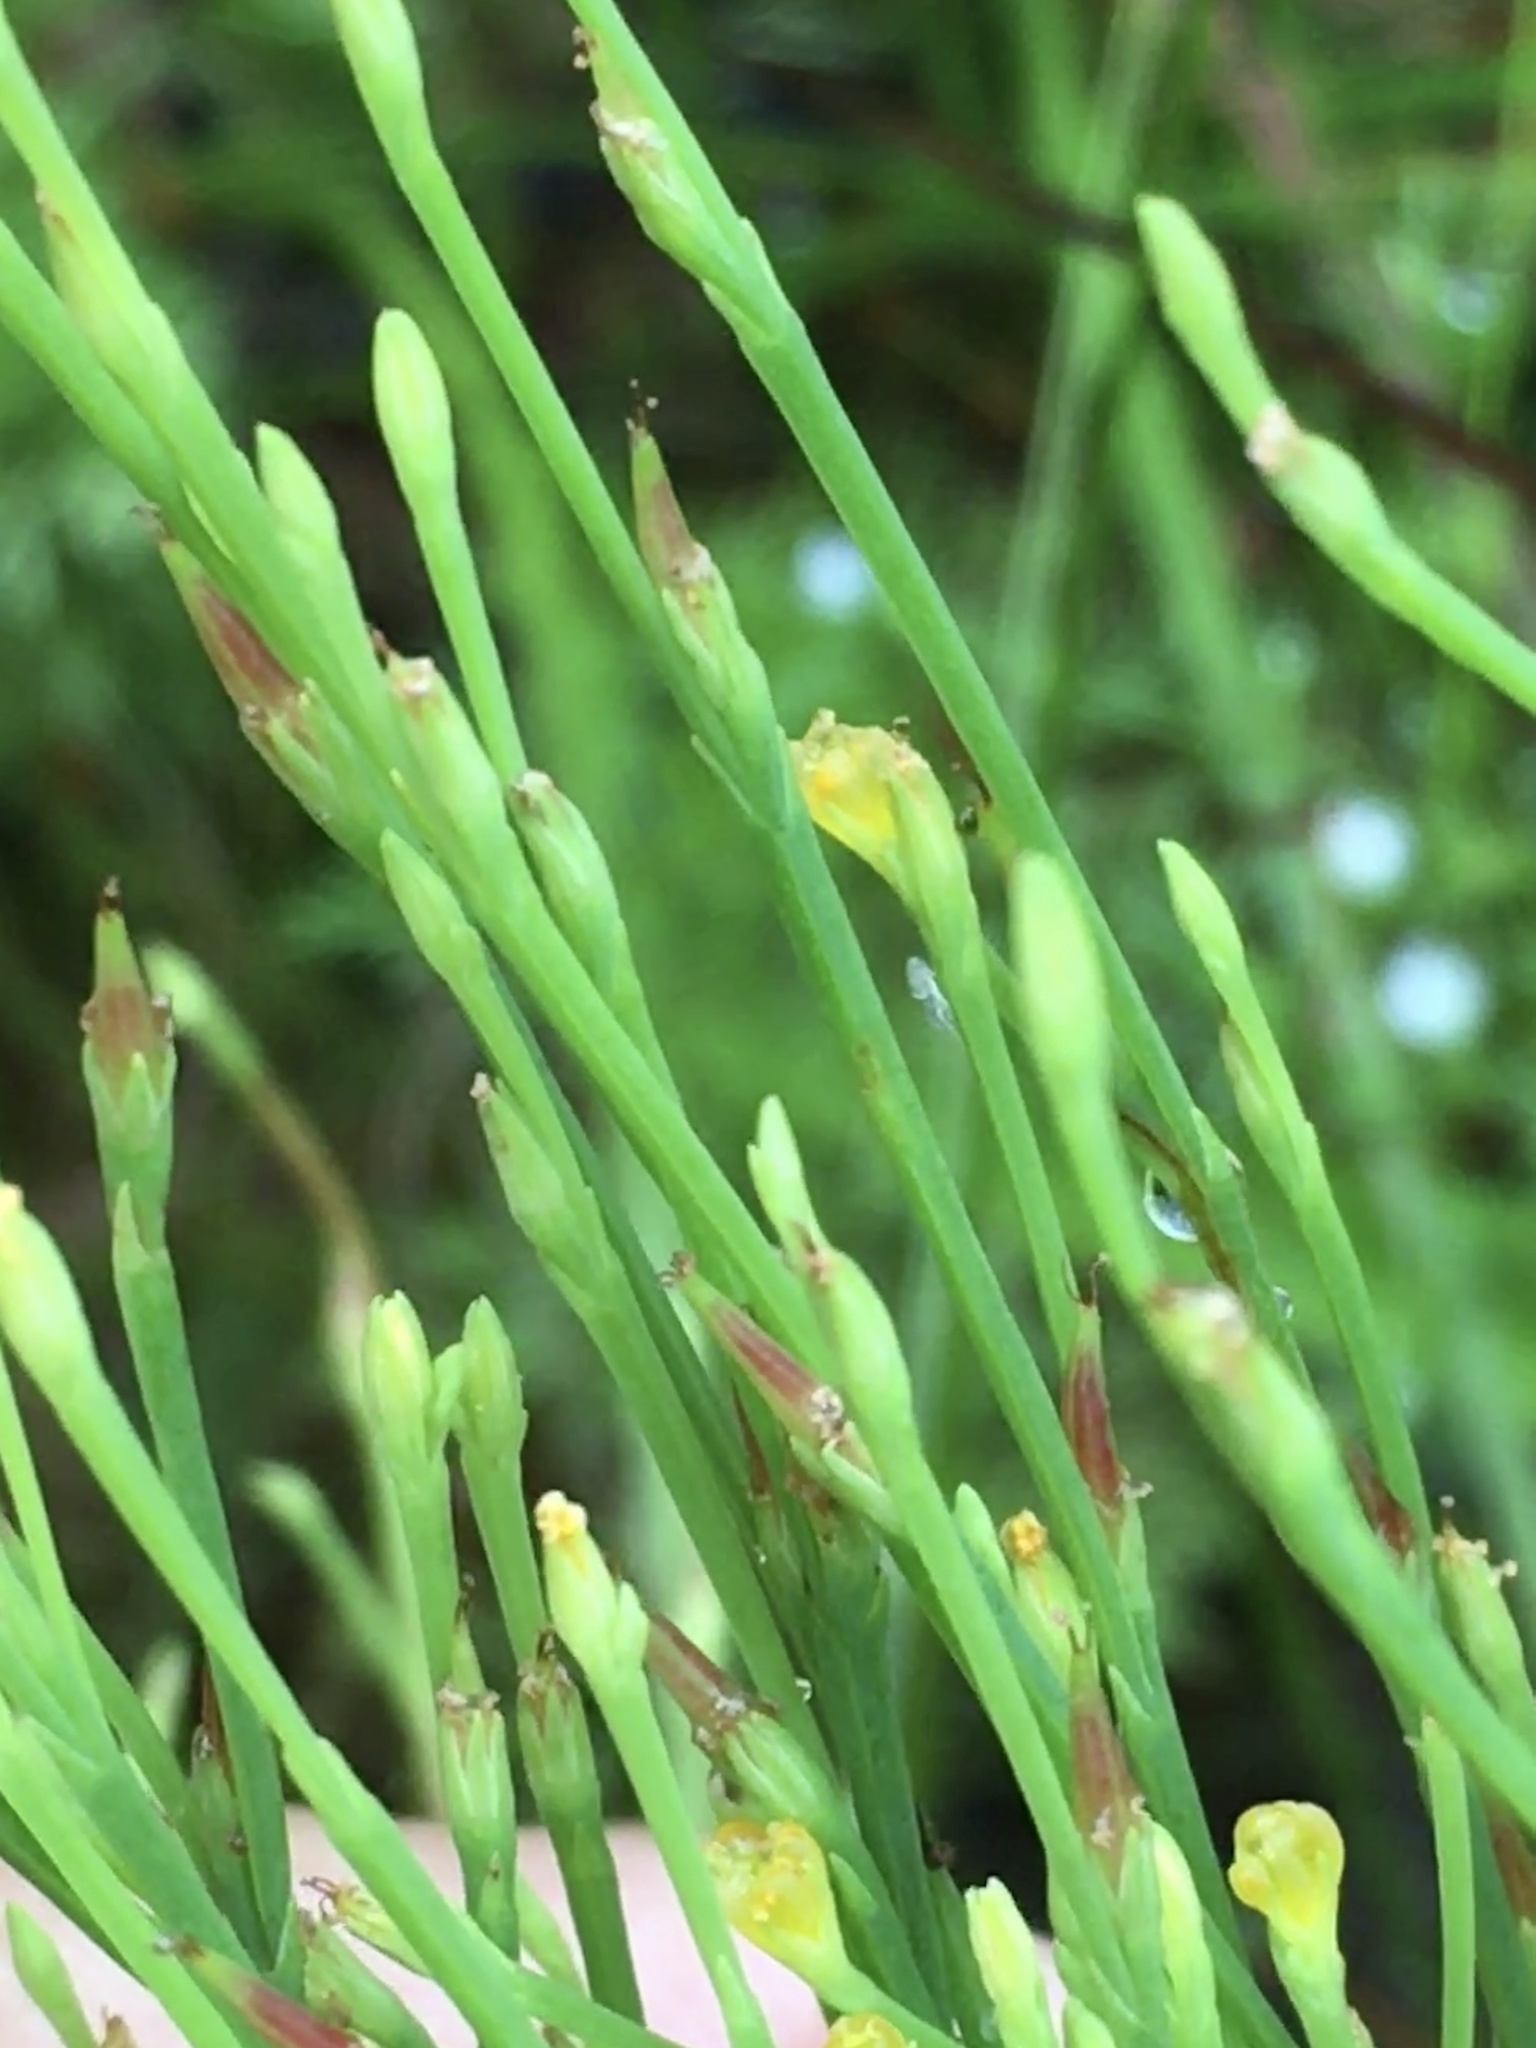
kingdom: Plantae
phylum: Tracheophyta
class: Magnoliopsida
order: Malpighiales
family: Hypericaceae
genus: Hypericum
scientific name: Hypericum gentianoides
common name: Gentian-leaved st. john's-wort
